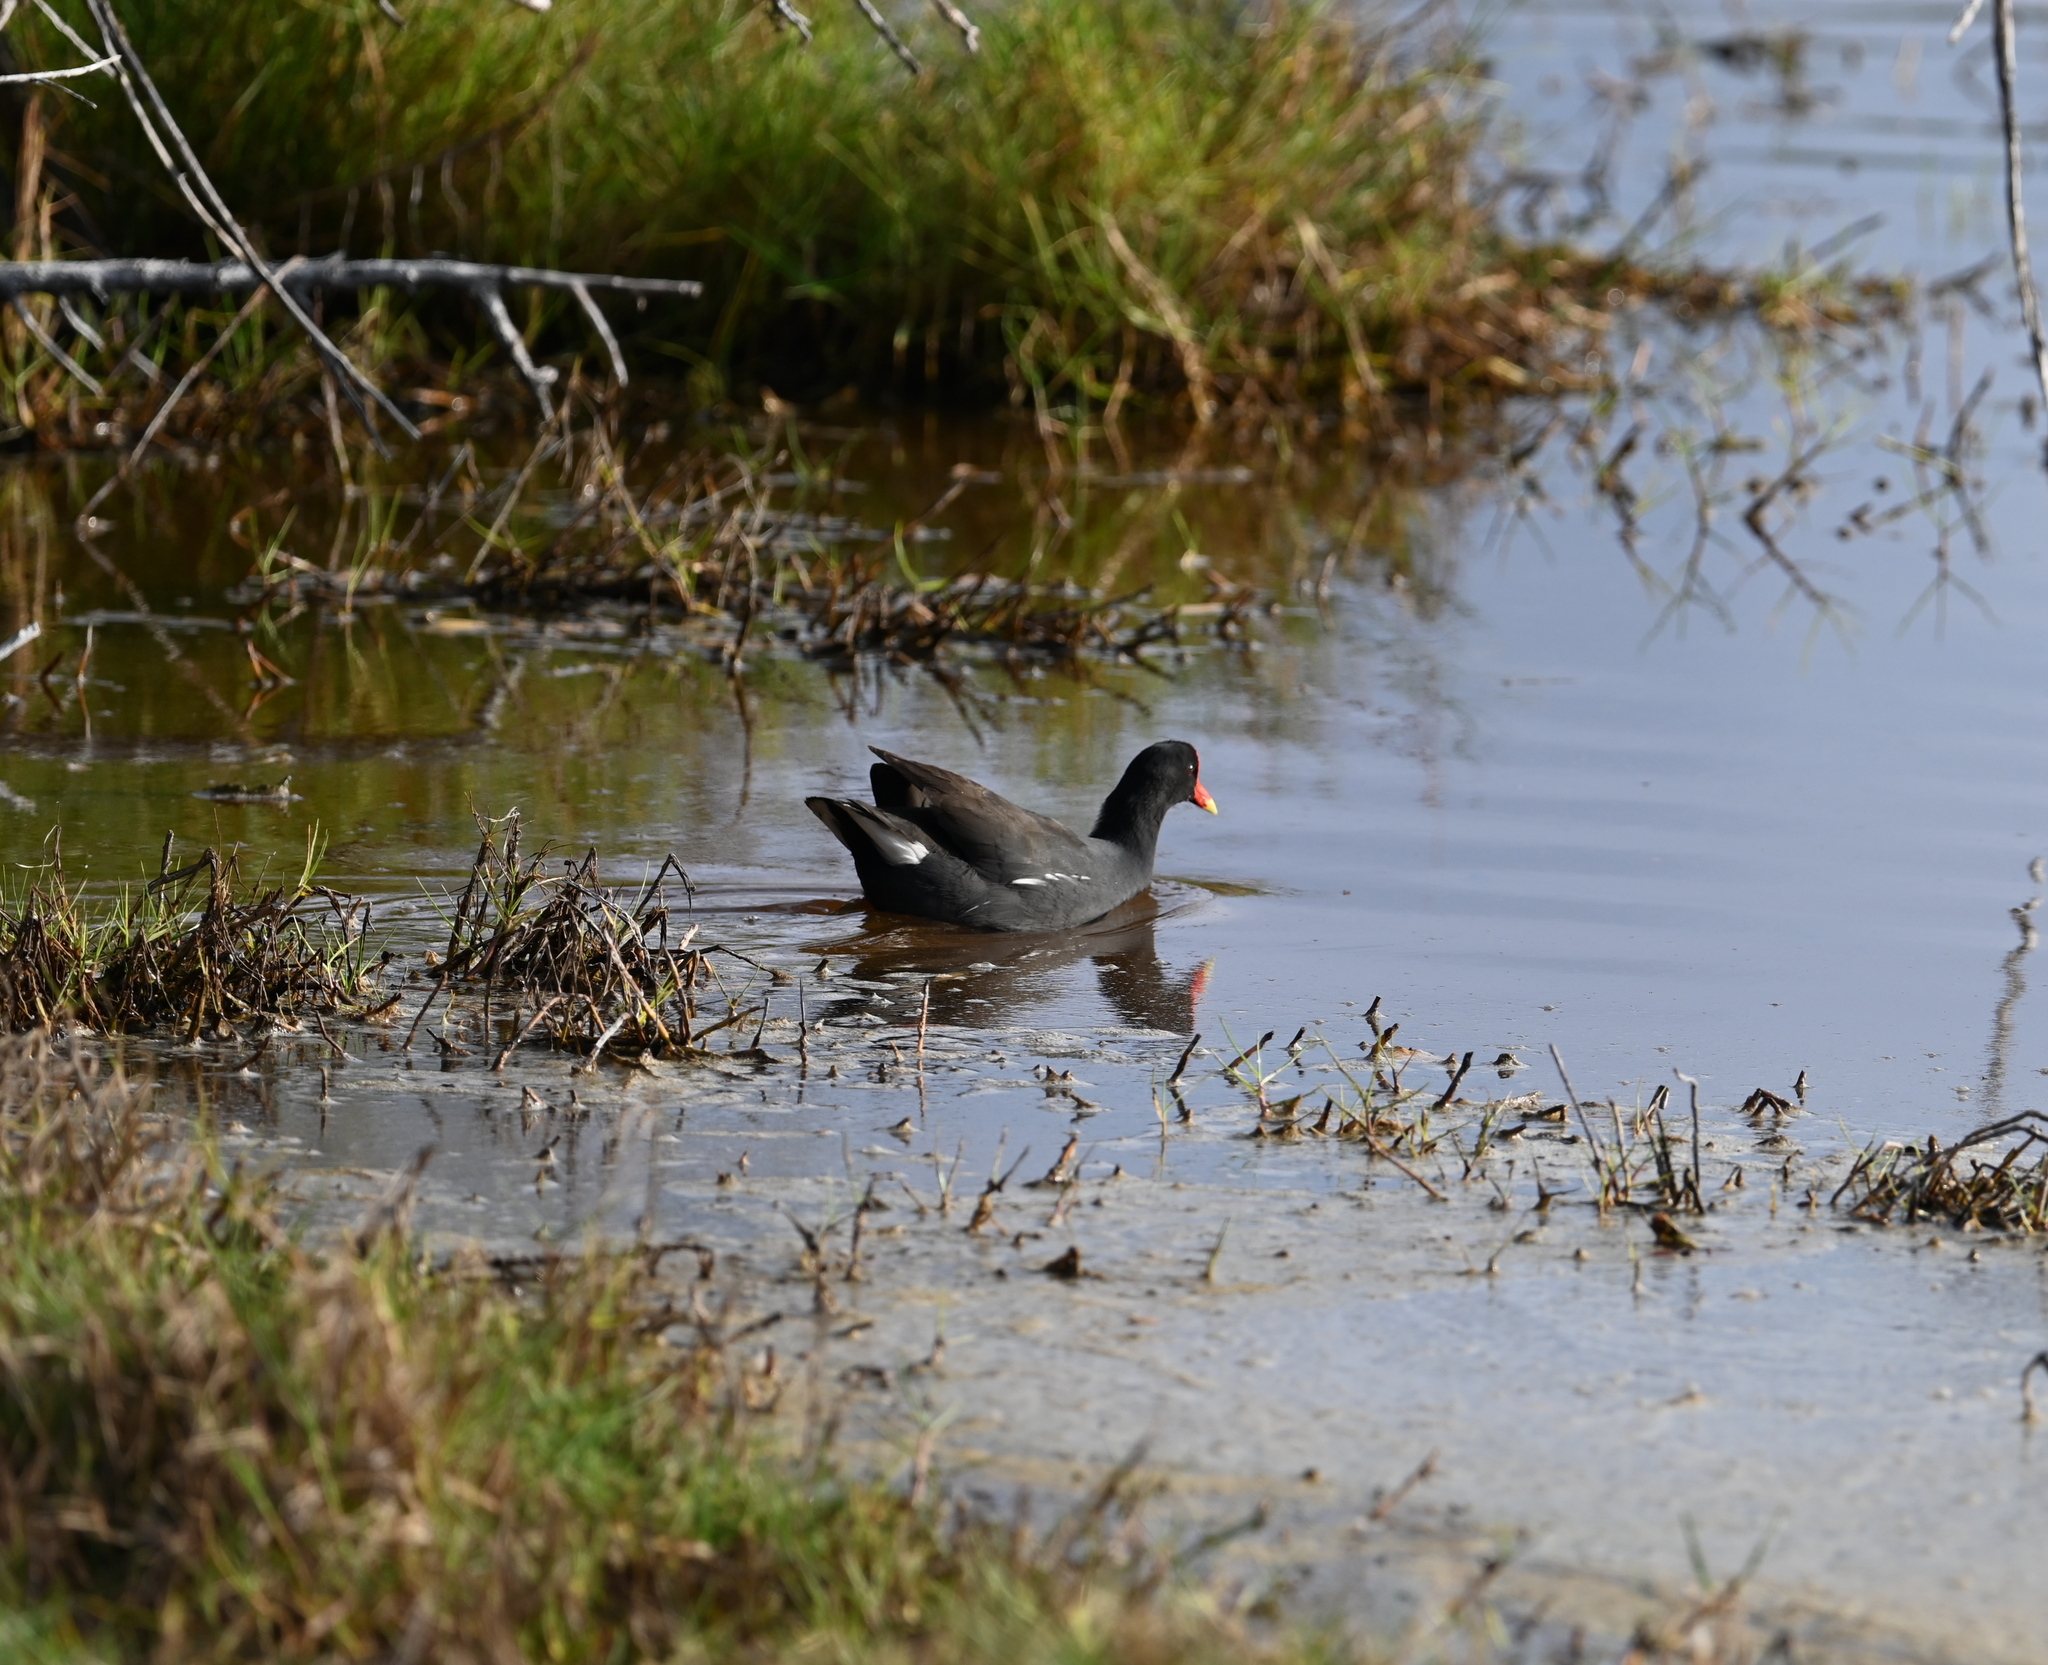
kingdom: Animalia
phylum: Chordata
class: Aves
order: Gruiformes
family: Rallidae
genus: Gallinula
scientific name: Gallinula chloropus
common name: Common moorhen
